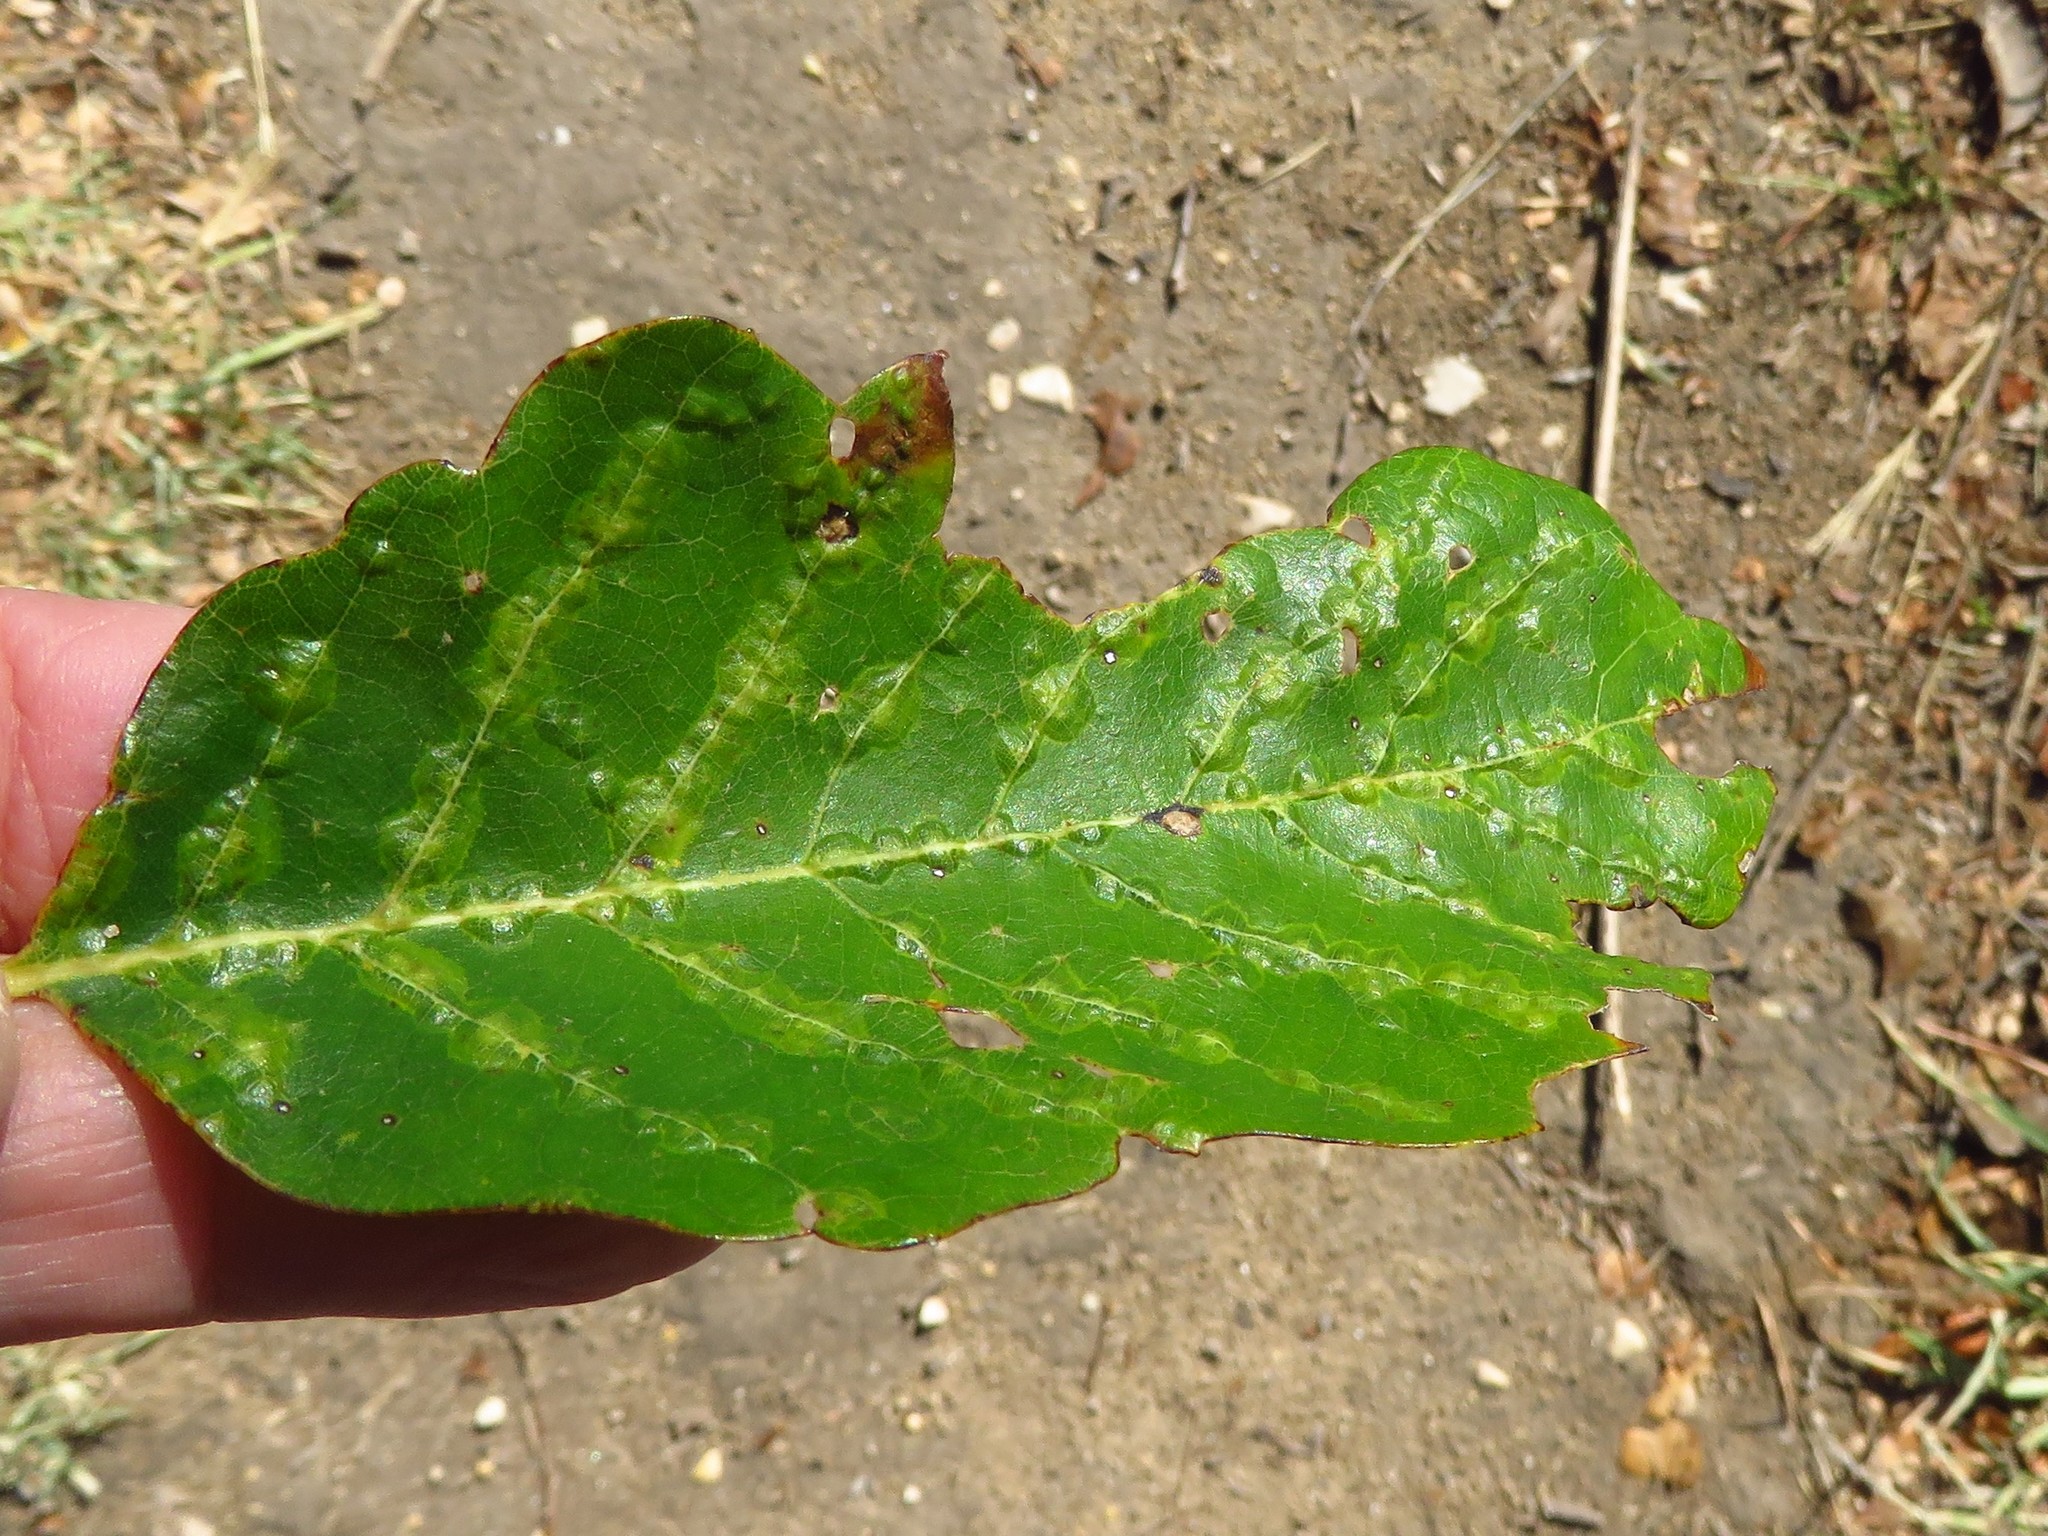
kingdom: Plantae
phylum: Tracheophyta
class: Magnoliopsida
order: Fagales
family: Fagaceae
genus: Quercus
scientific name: Quercus muehlenbergii
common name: Chinkapin oak
